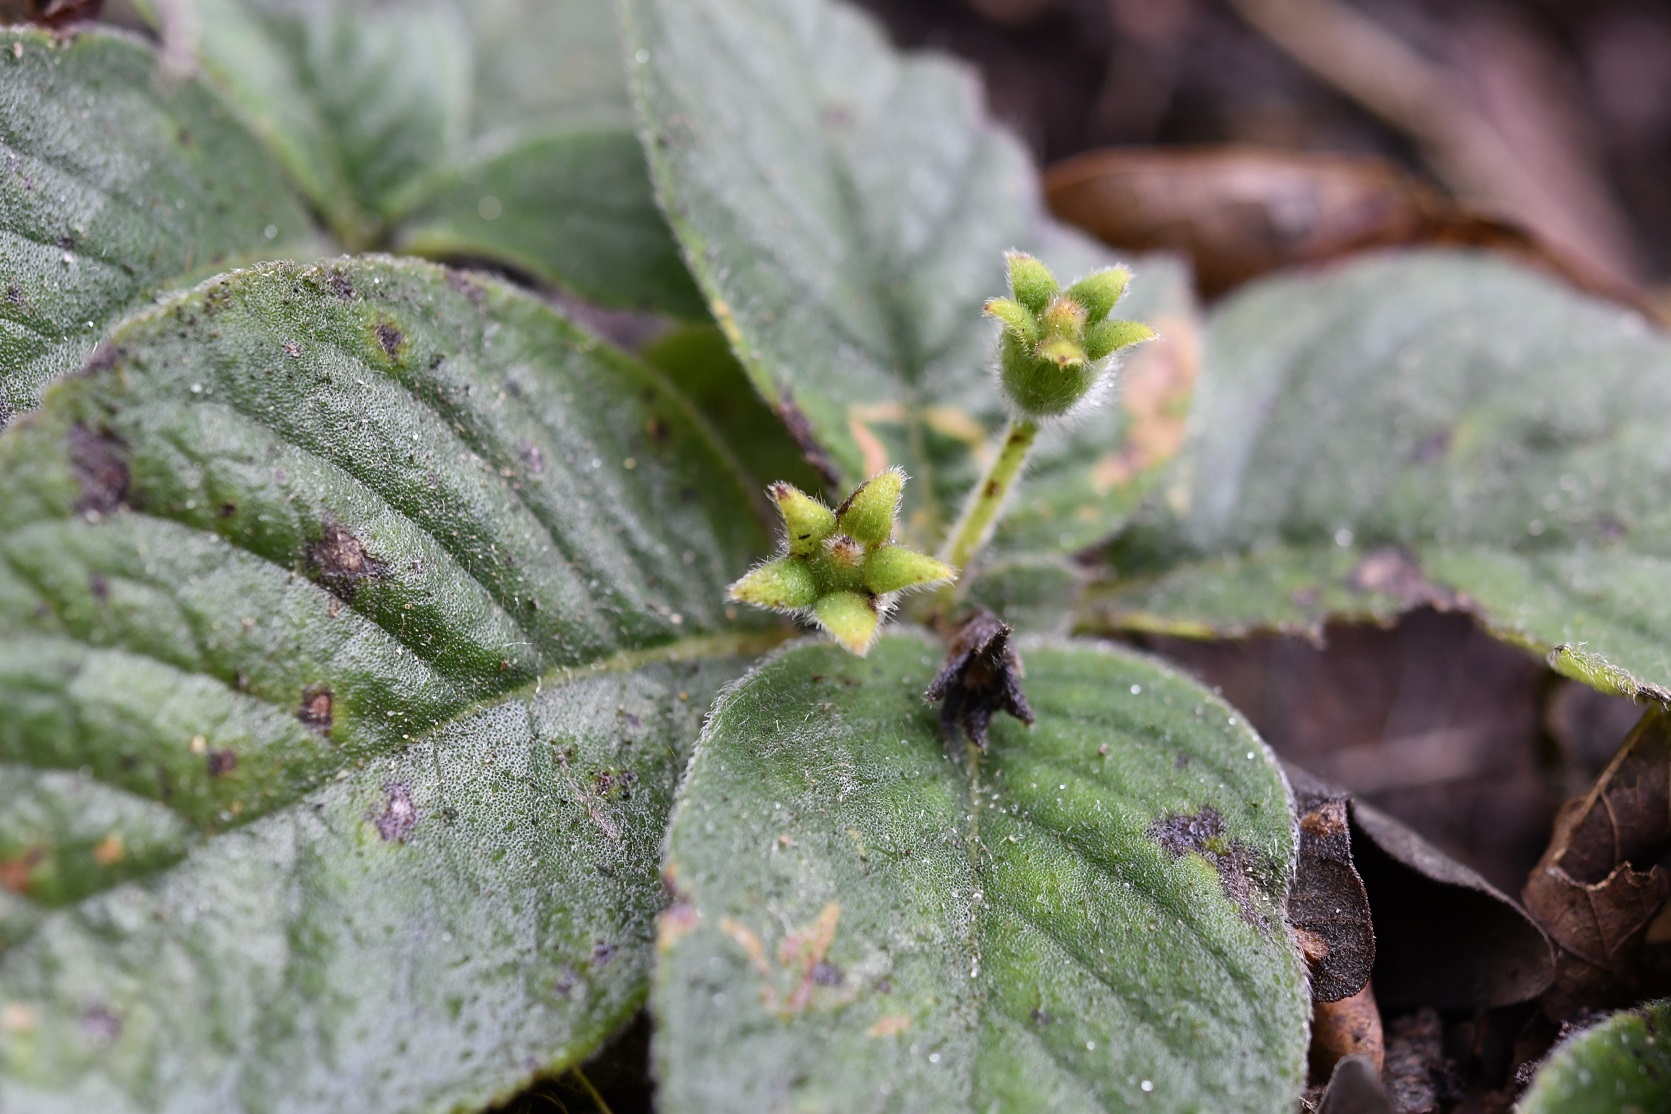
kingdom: Plantae
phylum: Tracheophyta
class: Magnoliopsida
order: Lamiales
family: Gesneriaceae
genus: Kohleria
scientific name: Kohleria rugata
